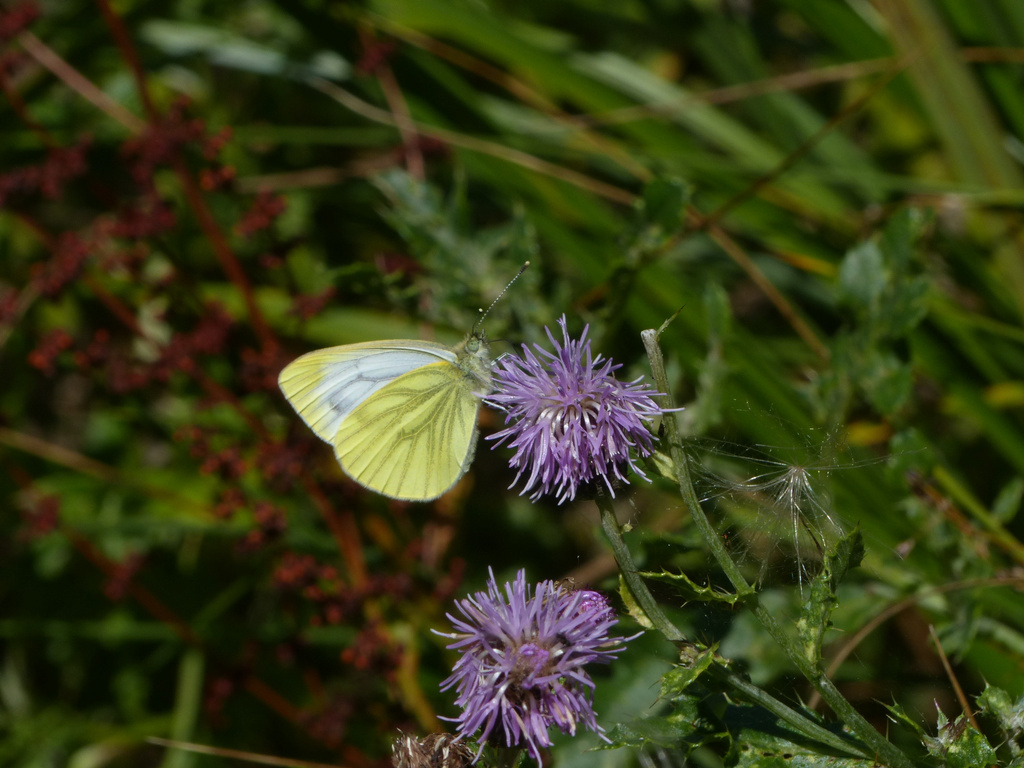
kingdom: Animalia
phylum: Arthropoda
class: Insecta
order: Lepidoptera
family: Pieridae
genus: Pieris
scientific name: Pieris napi
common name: Green-veined white
